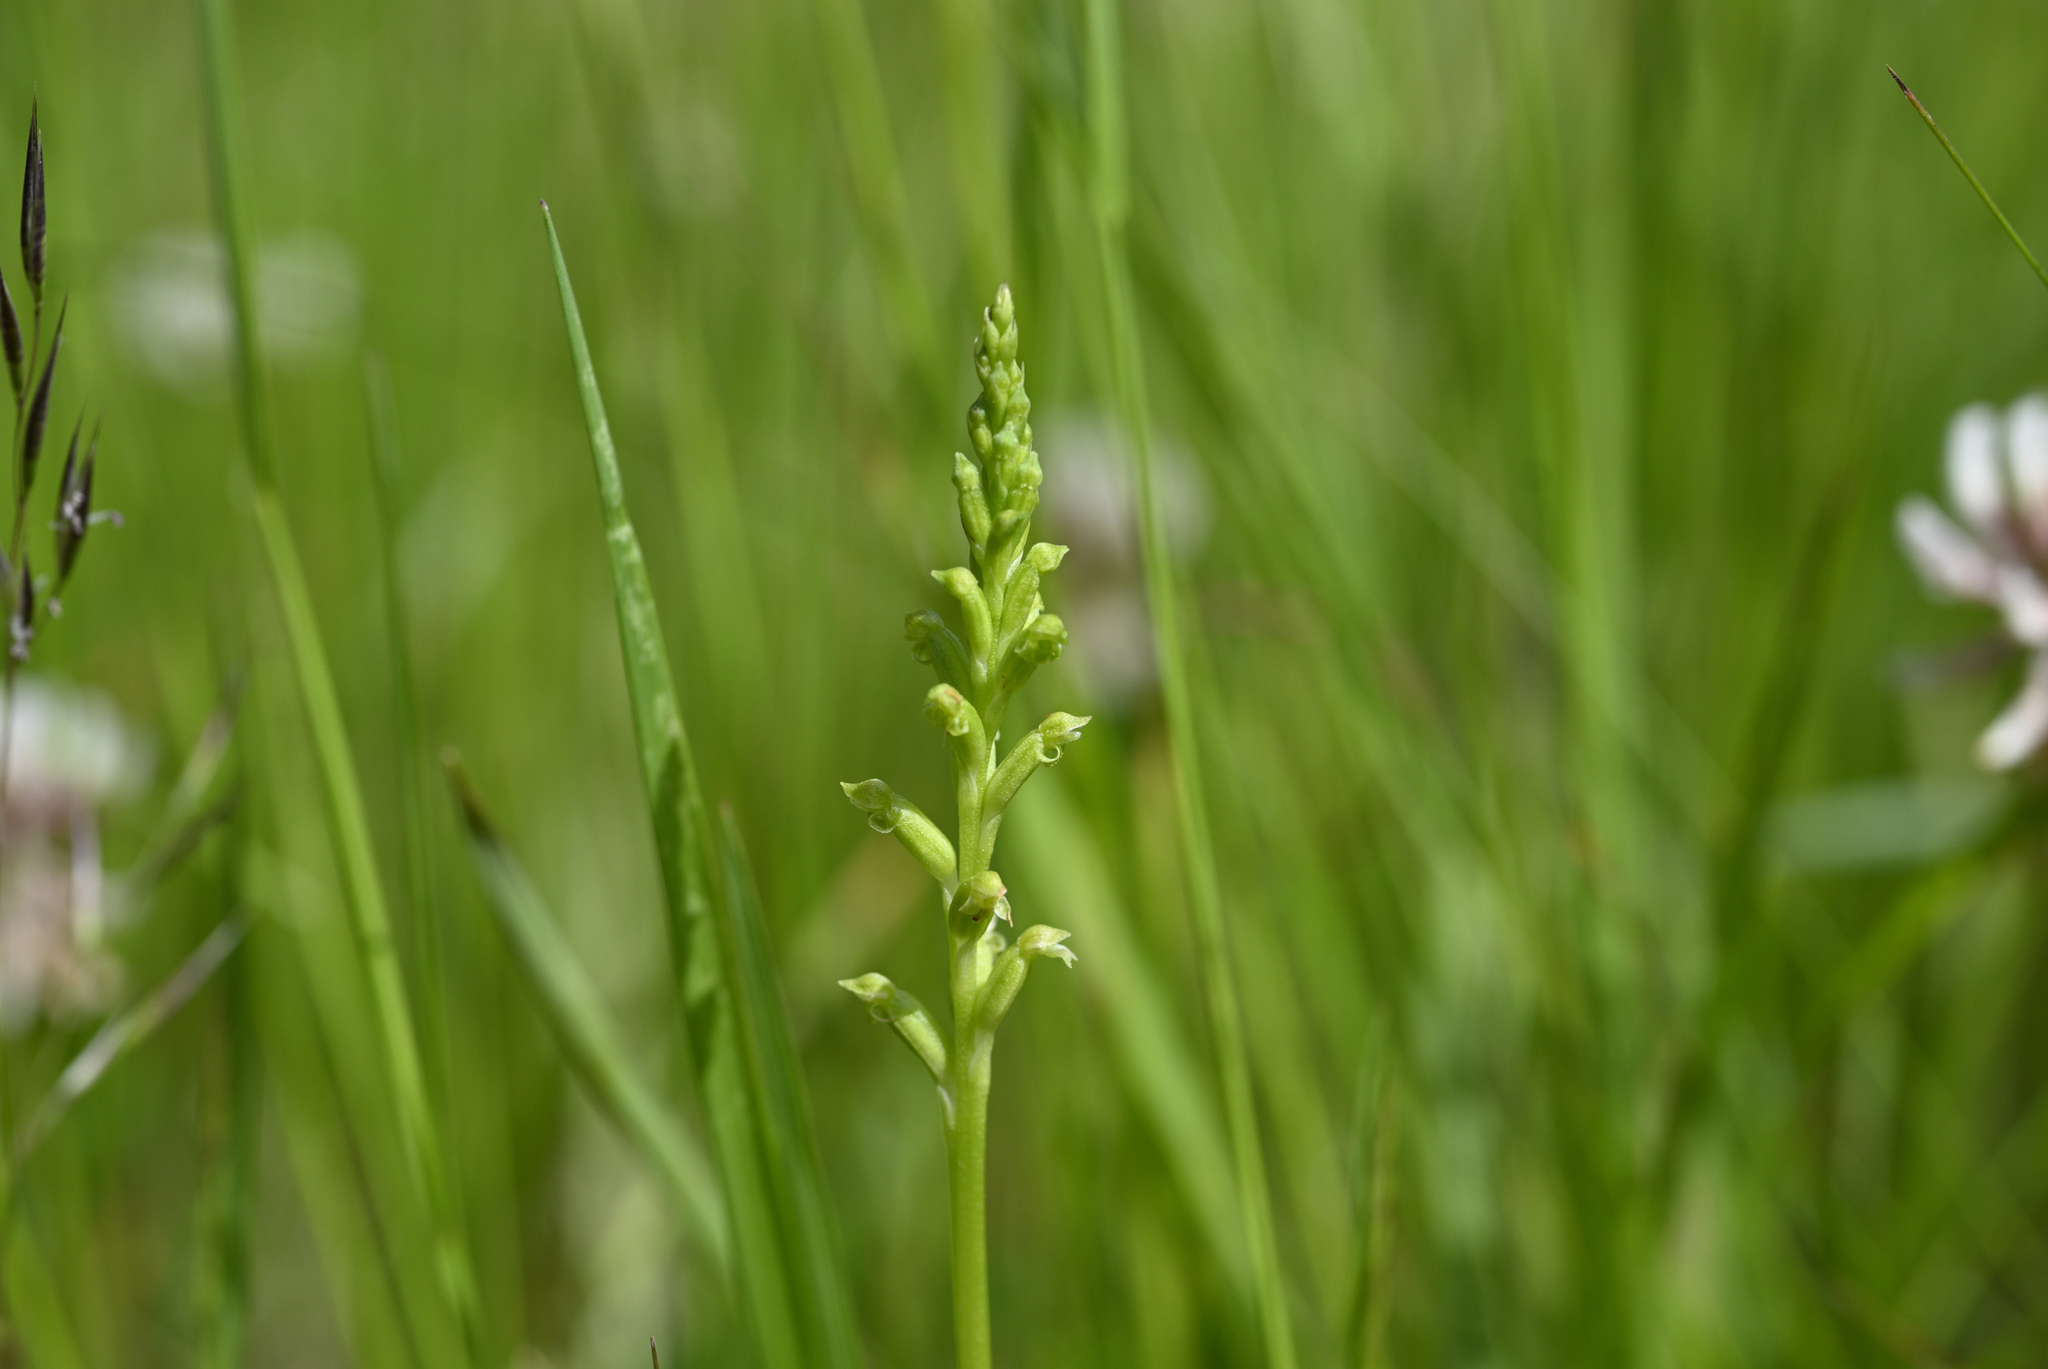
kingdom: Plantae
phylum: Tracheophyta
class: Liliopsida
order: Asparagales
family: Orchidaceae
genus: Microtis
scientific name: Microtis unifolia
